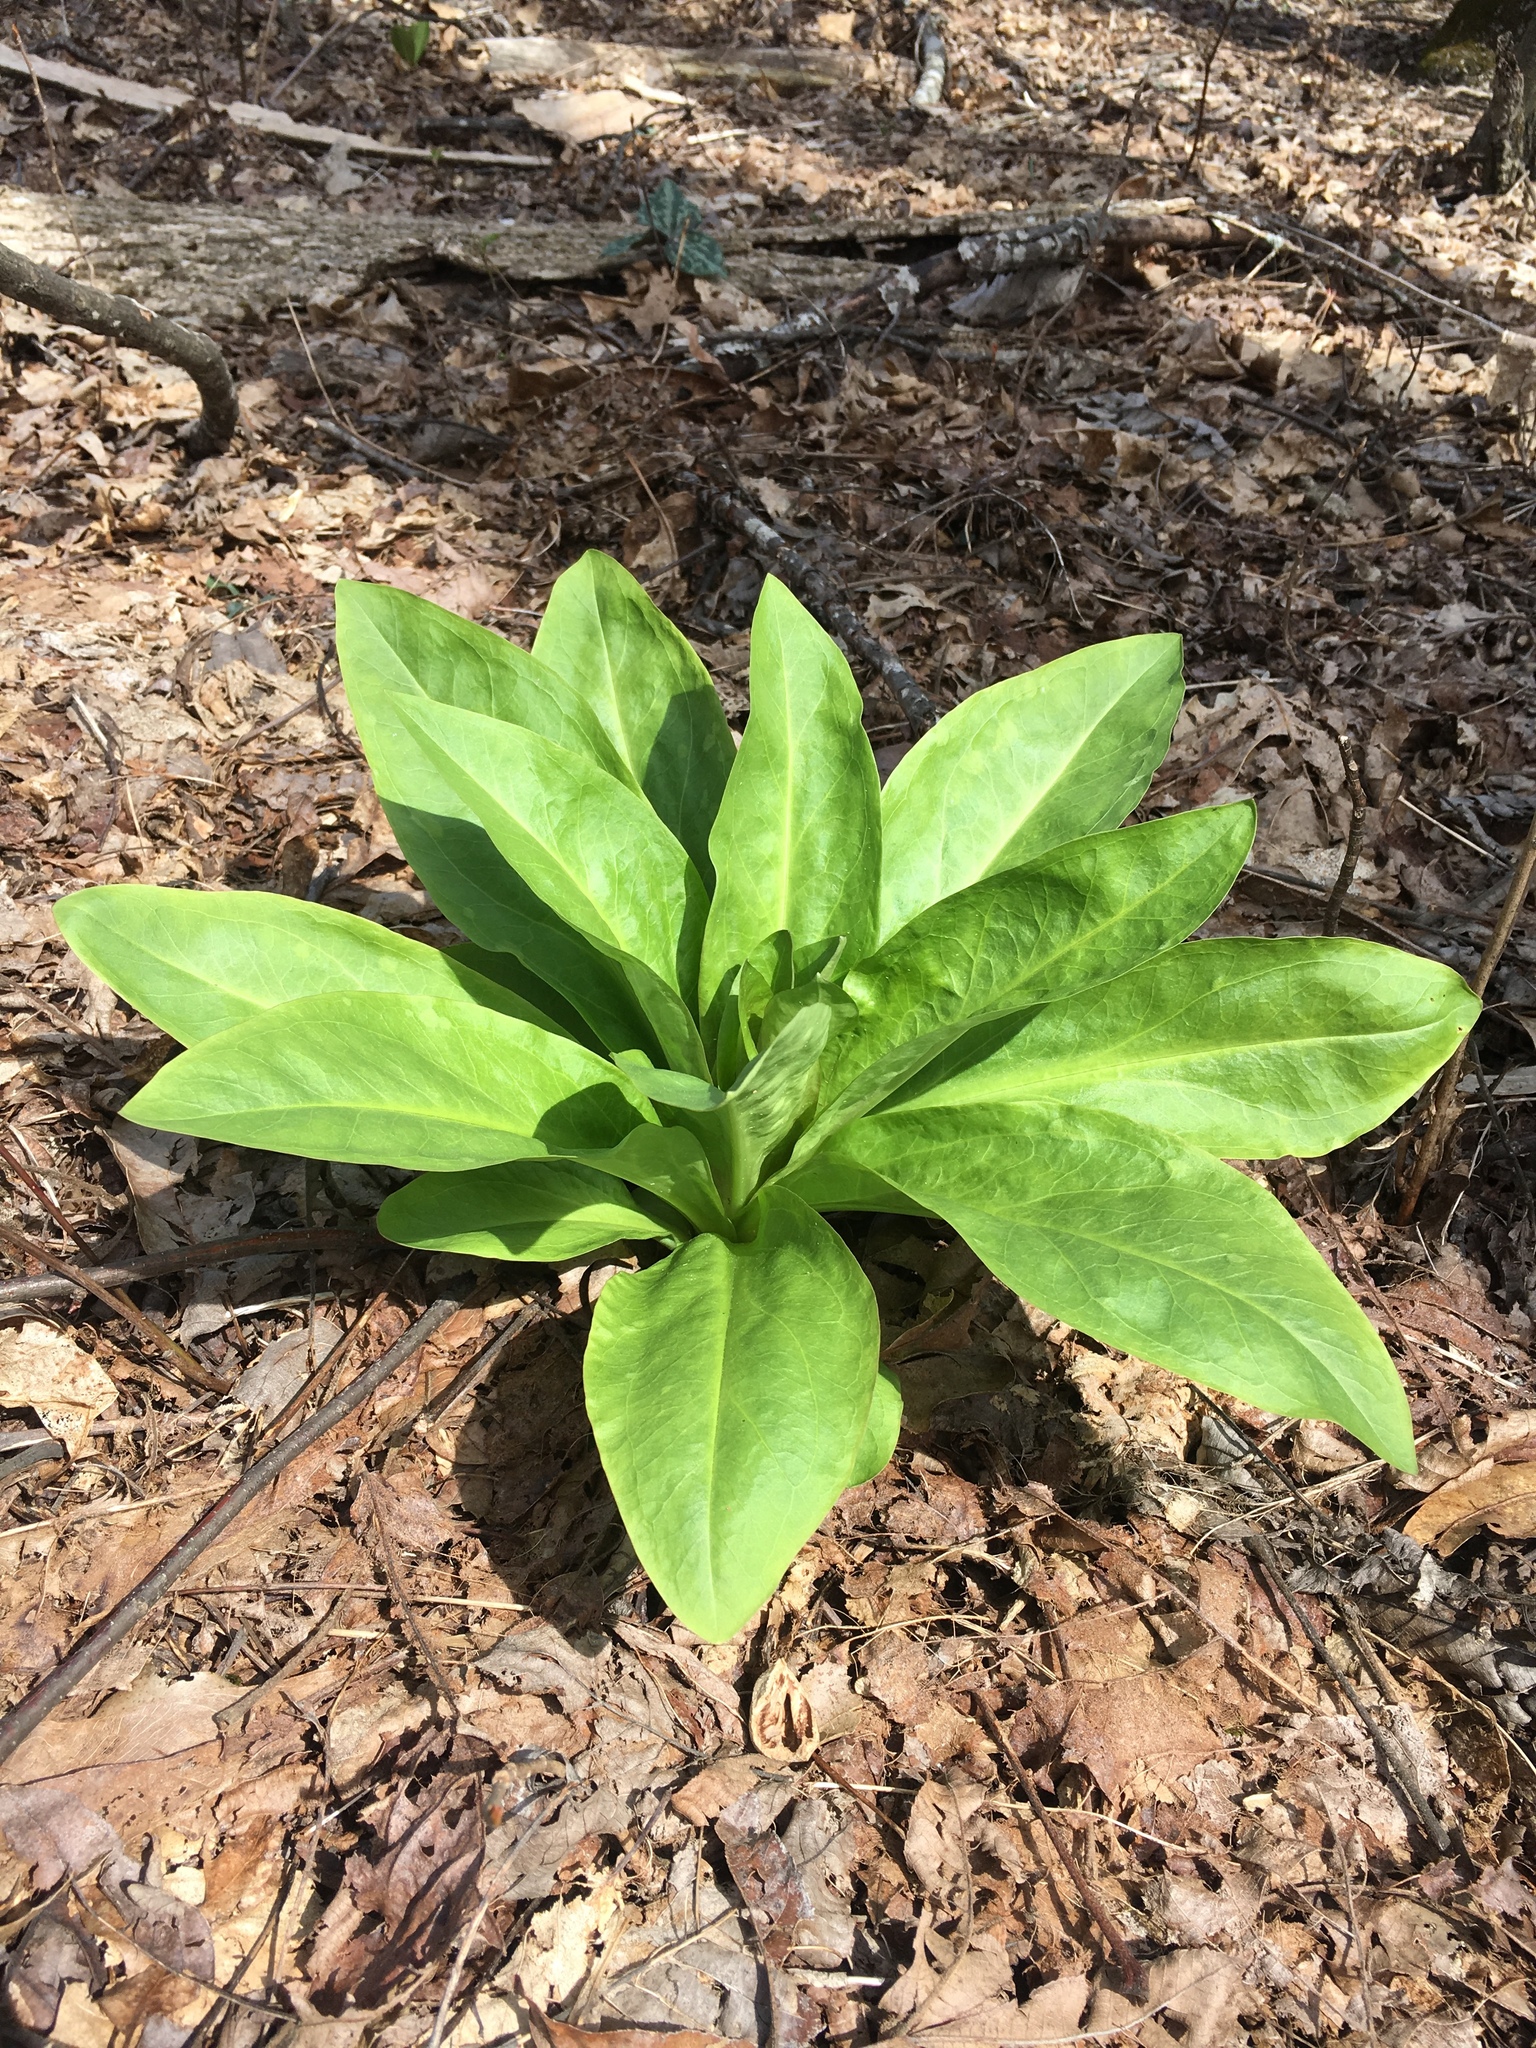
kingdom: Plantae
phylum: Tracheophyta
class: Magnoliopsida
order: Gentianales
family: Gentianaceae
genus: Frasera
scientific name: Frasera caroliniensis
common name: American columbo
